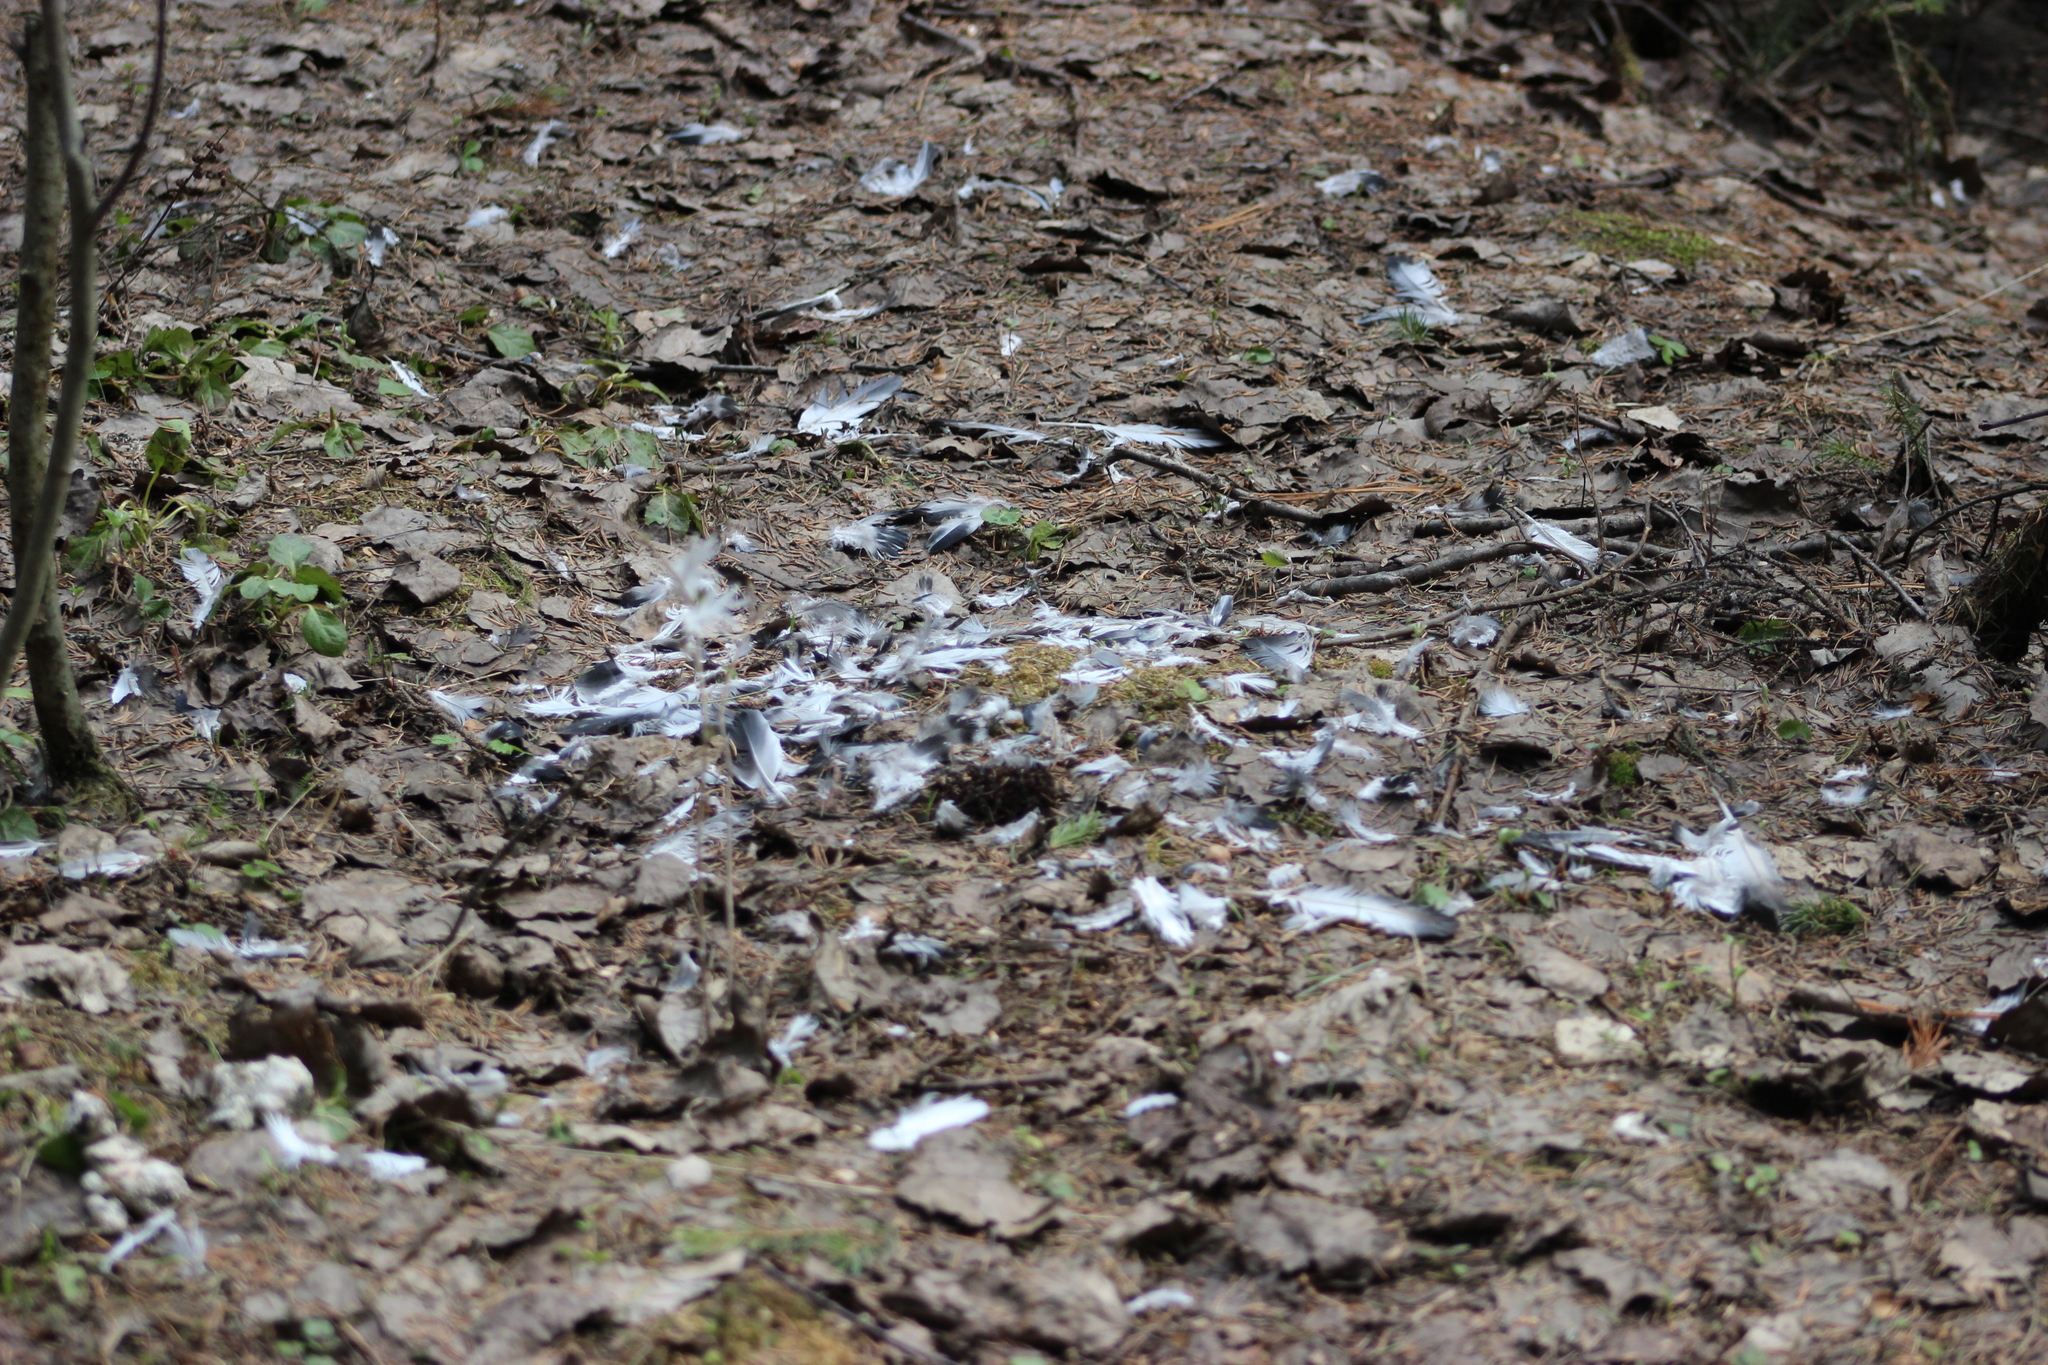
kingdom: Animalia
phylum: Chordata
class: Aves
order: Columbiformes
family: Columbidae
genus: Columba
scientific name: Columba livia
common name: Rock pigeon
